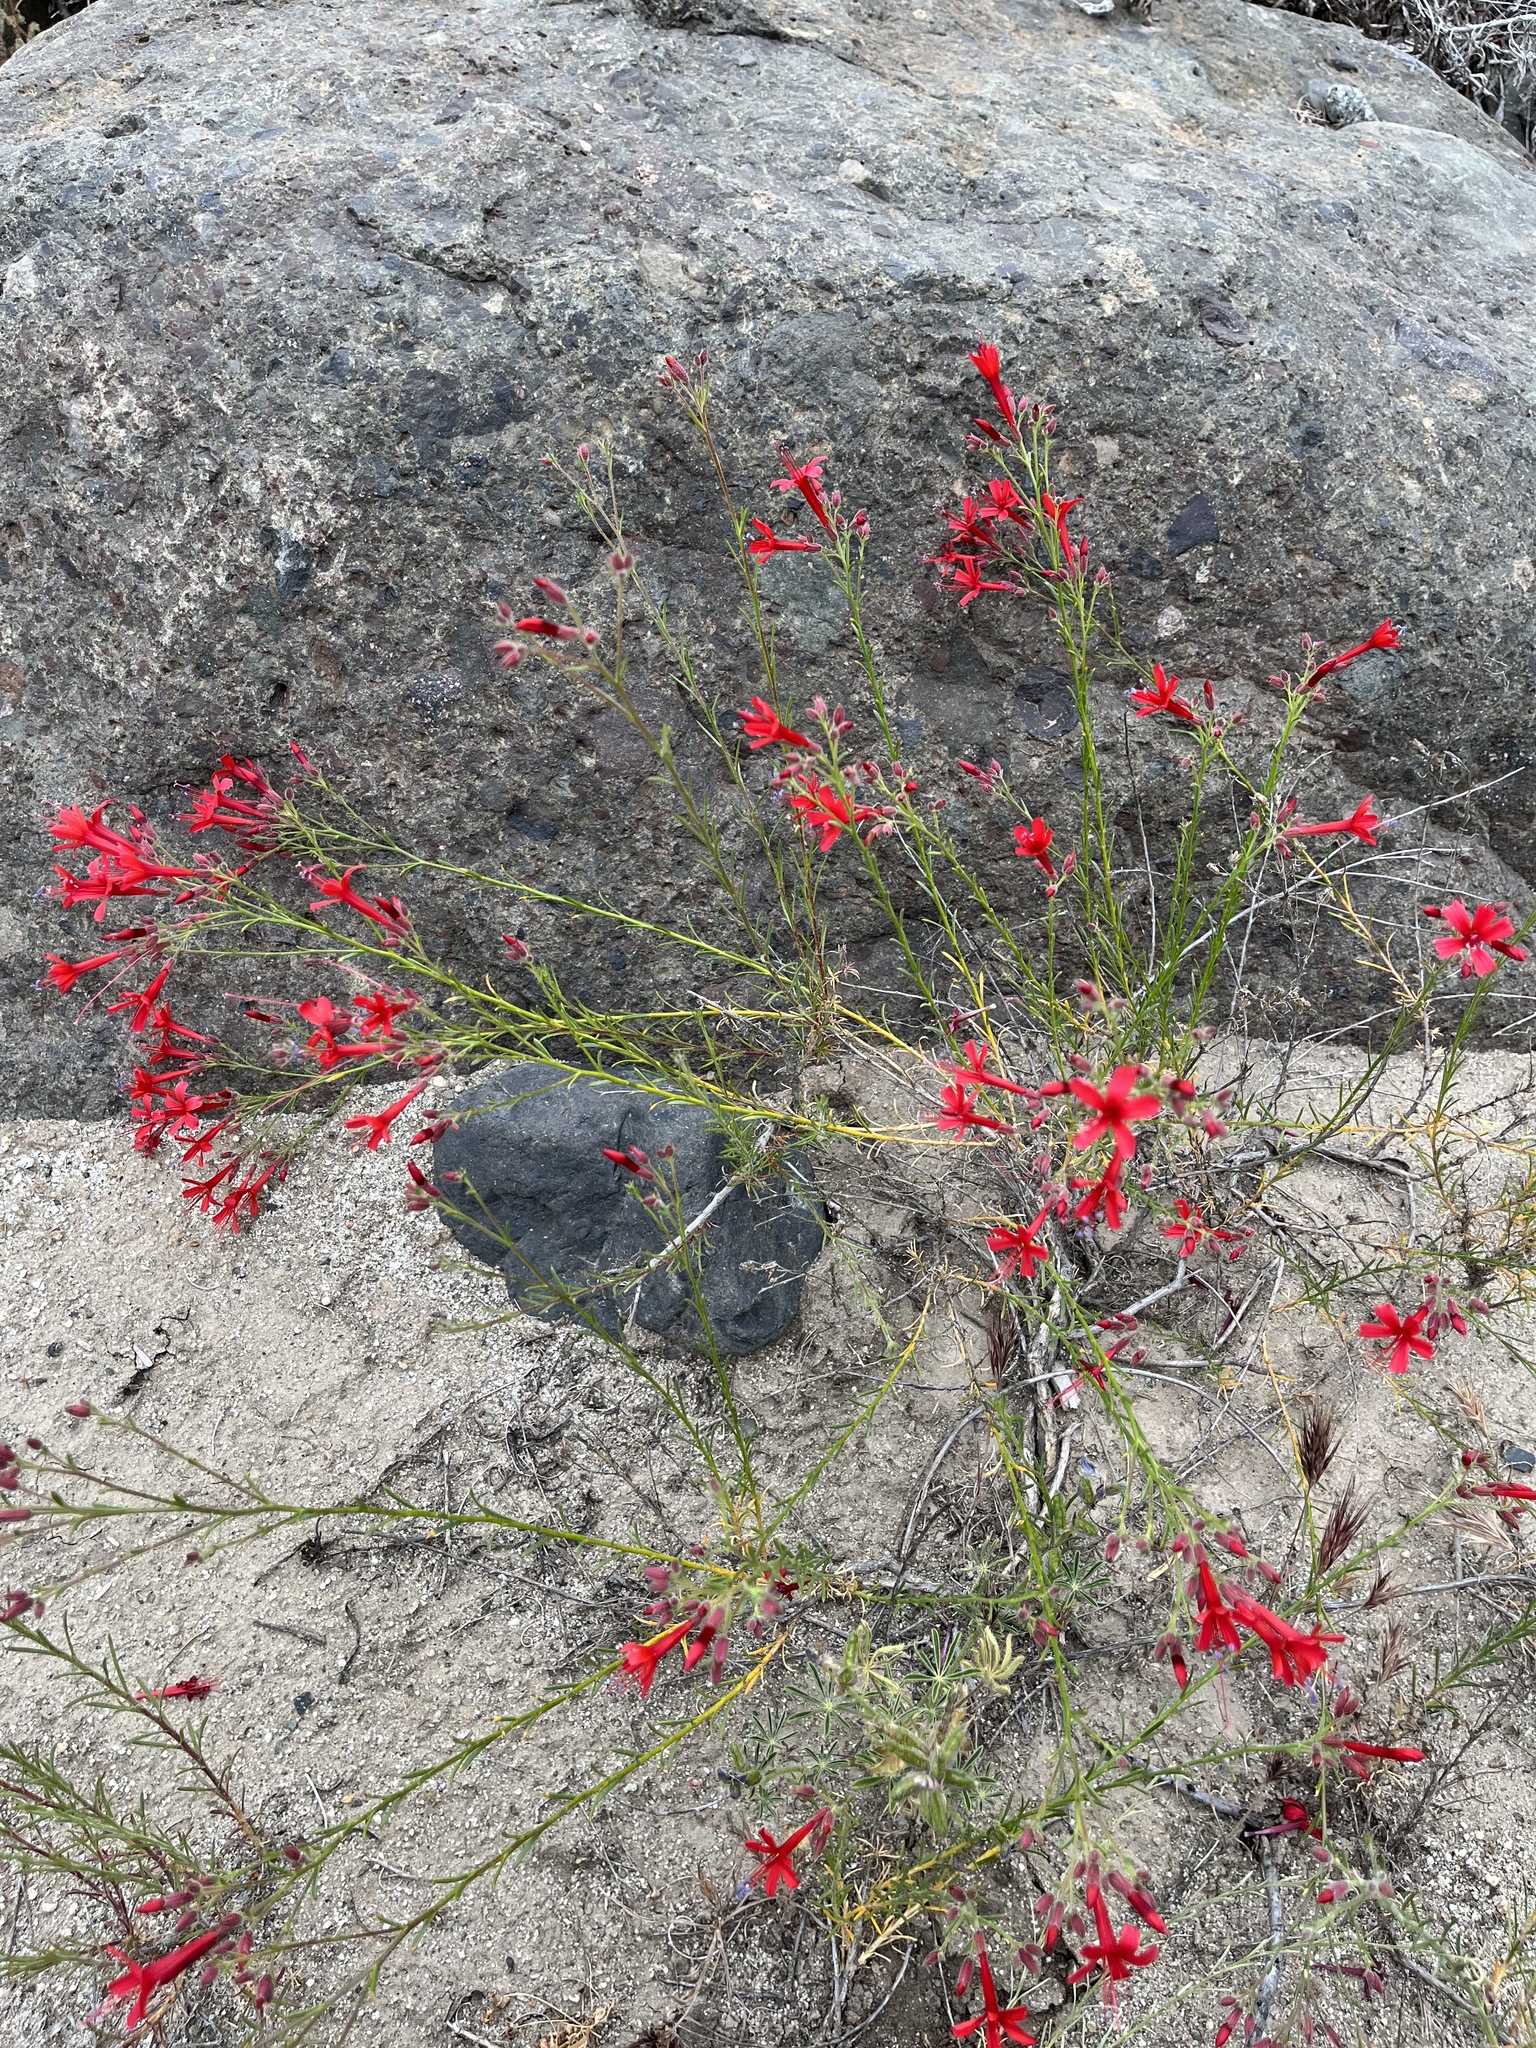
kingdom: Plantae
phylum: Tracheophyta
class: Magnoliopsida
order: Ericales
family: Polemoniaceae
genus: Ipomopsis
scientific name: Ipomopsis tenuifolia
